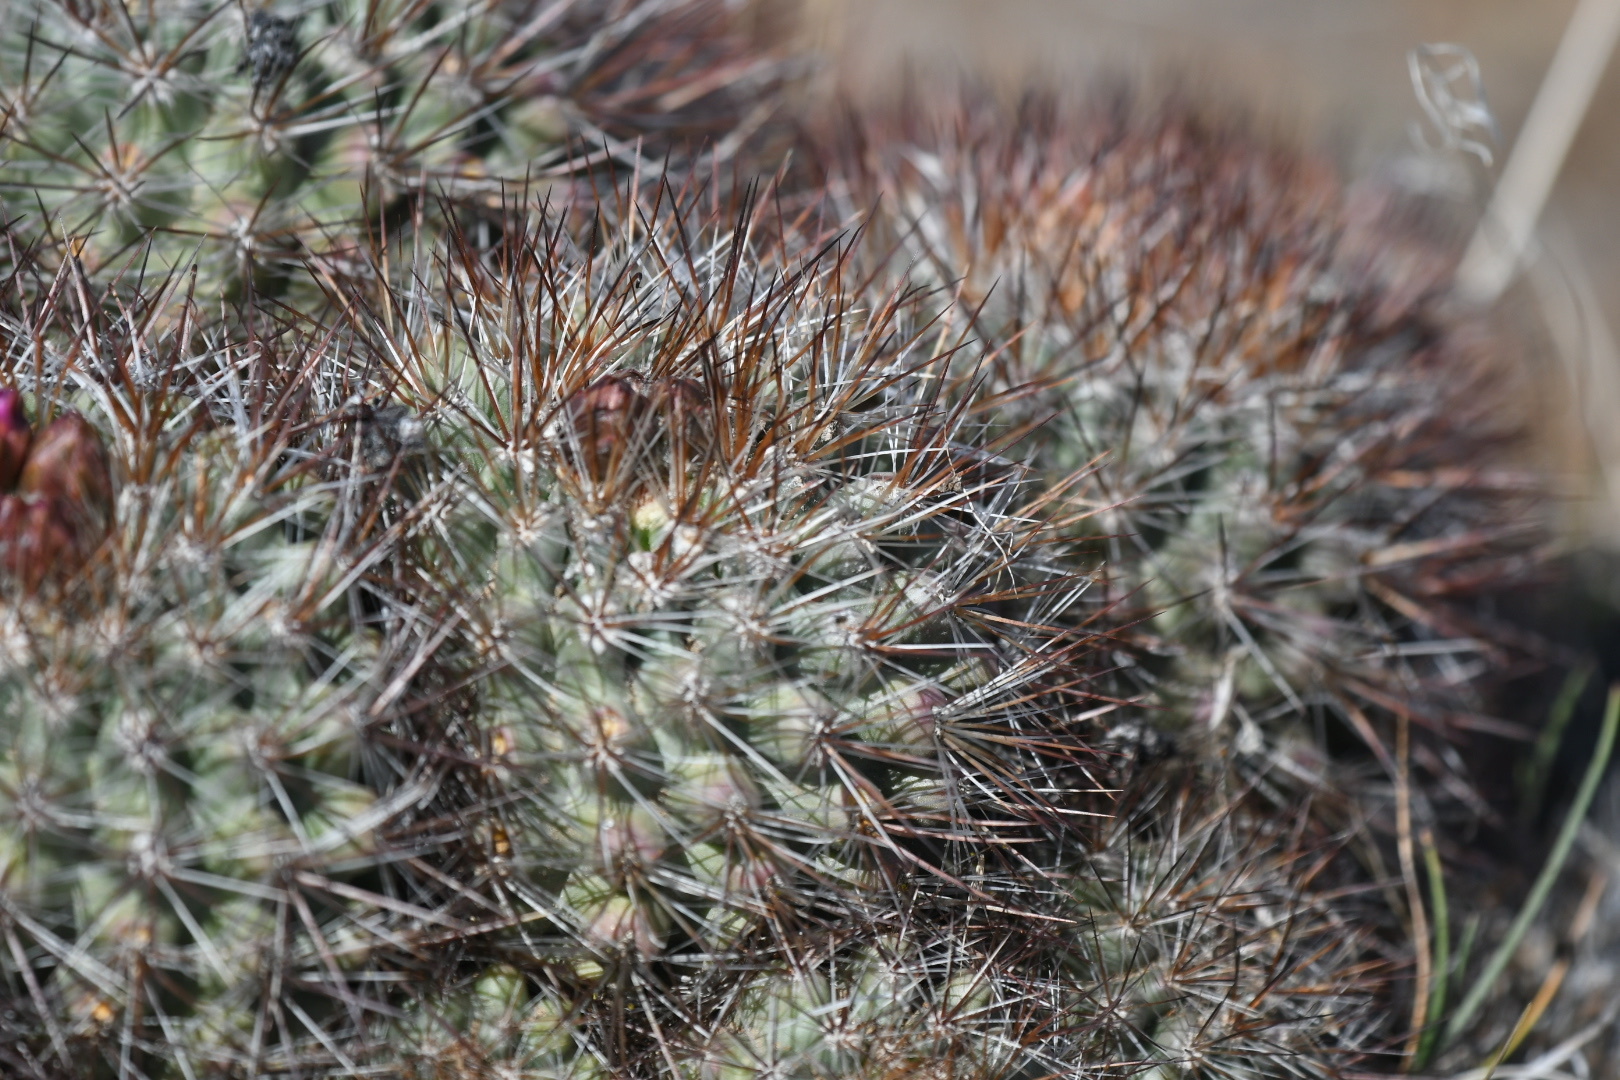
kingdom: Plantae
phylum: Tracheophyta
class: Magnoliopsida
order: Caryophyllales
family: Cactaceae
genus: Pediocactus
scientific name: Pediocactus nigrispinus
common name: Simpson's hedgehog cactus
